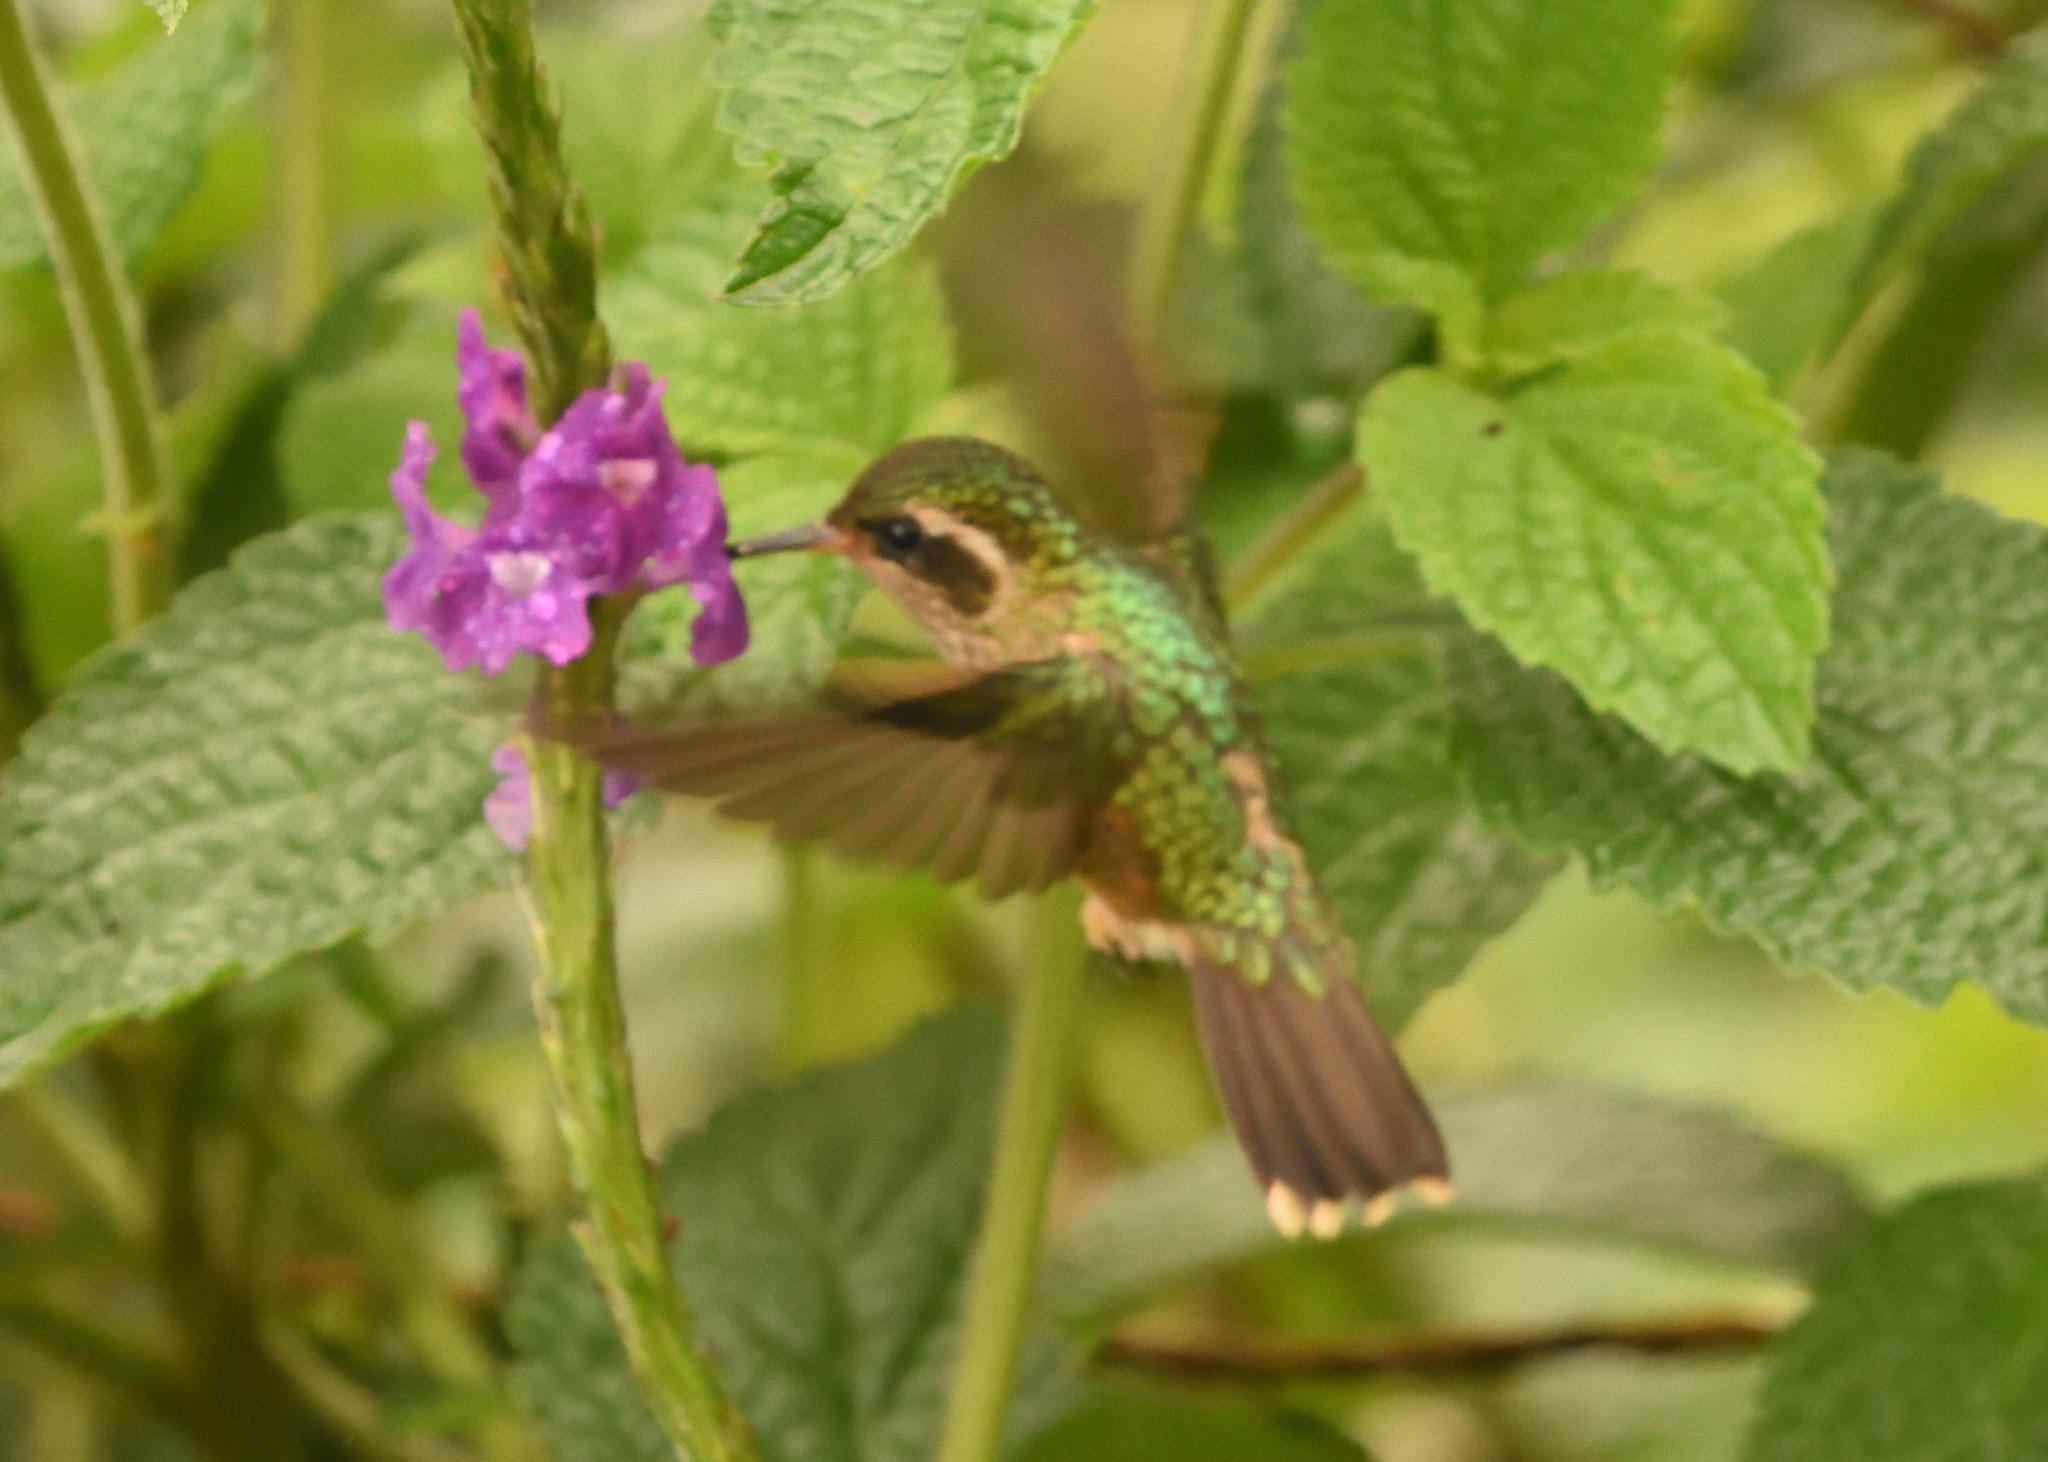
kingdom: Animalia
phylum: Chordata
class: Aves
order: Apodiformes
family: Trochilidae
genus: Adelomyia
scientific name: Adelomyia melanogenys
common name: Speckled hummingbird
